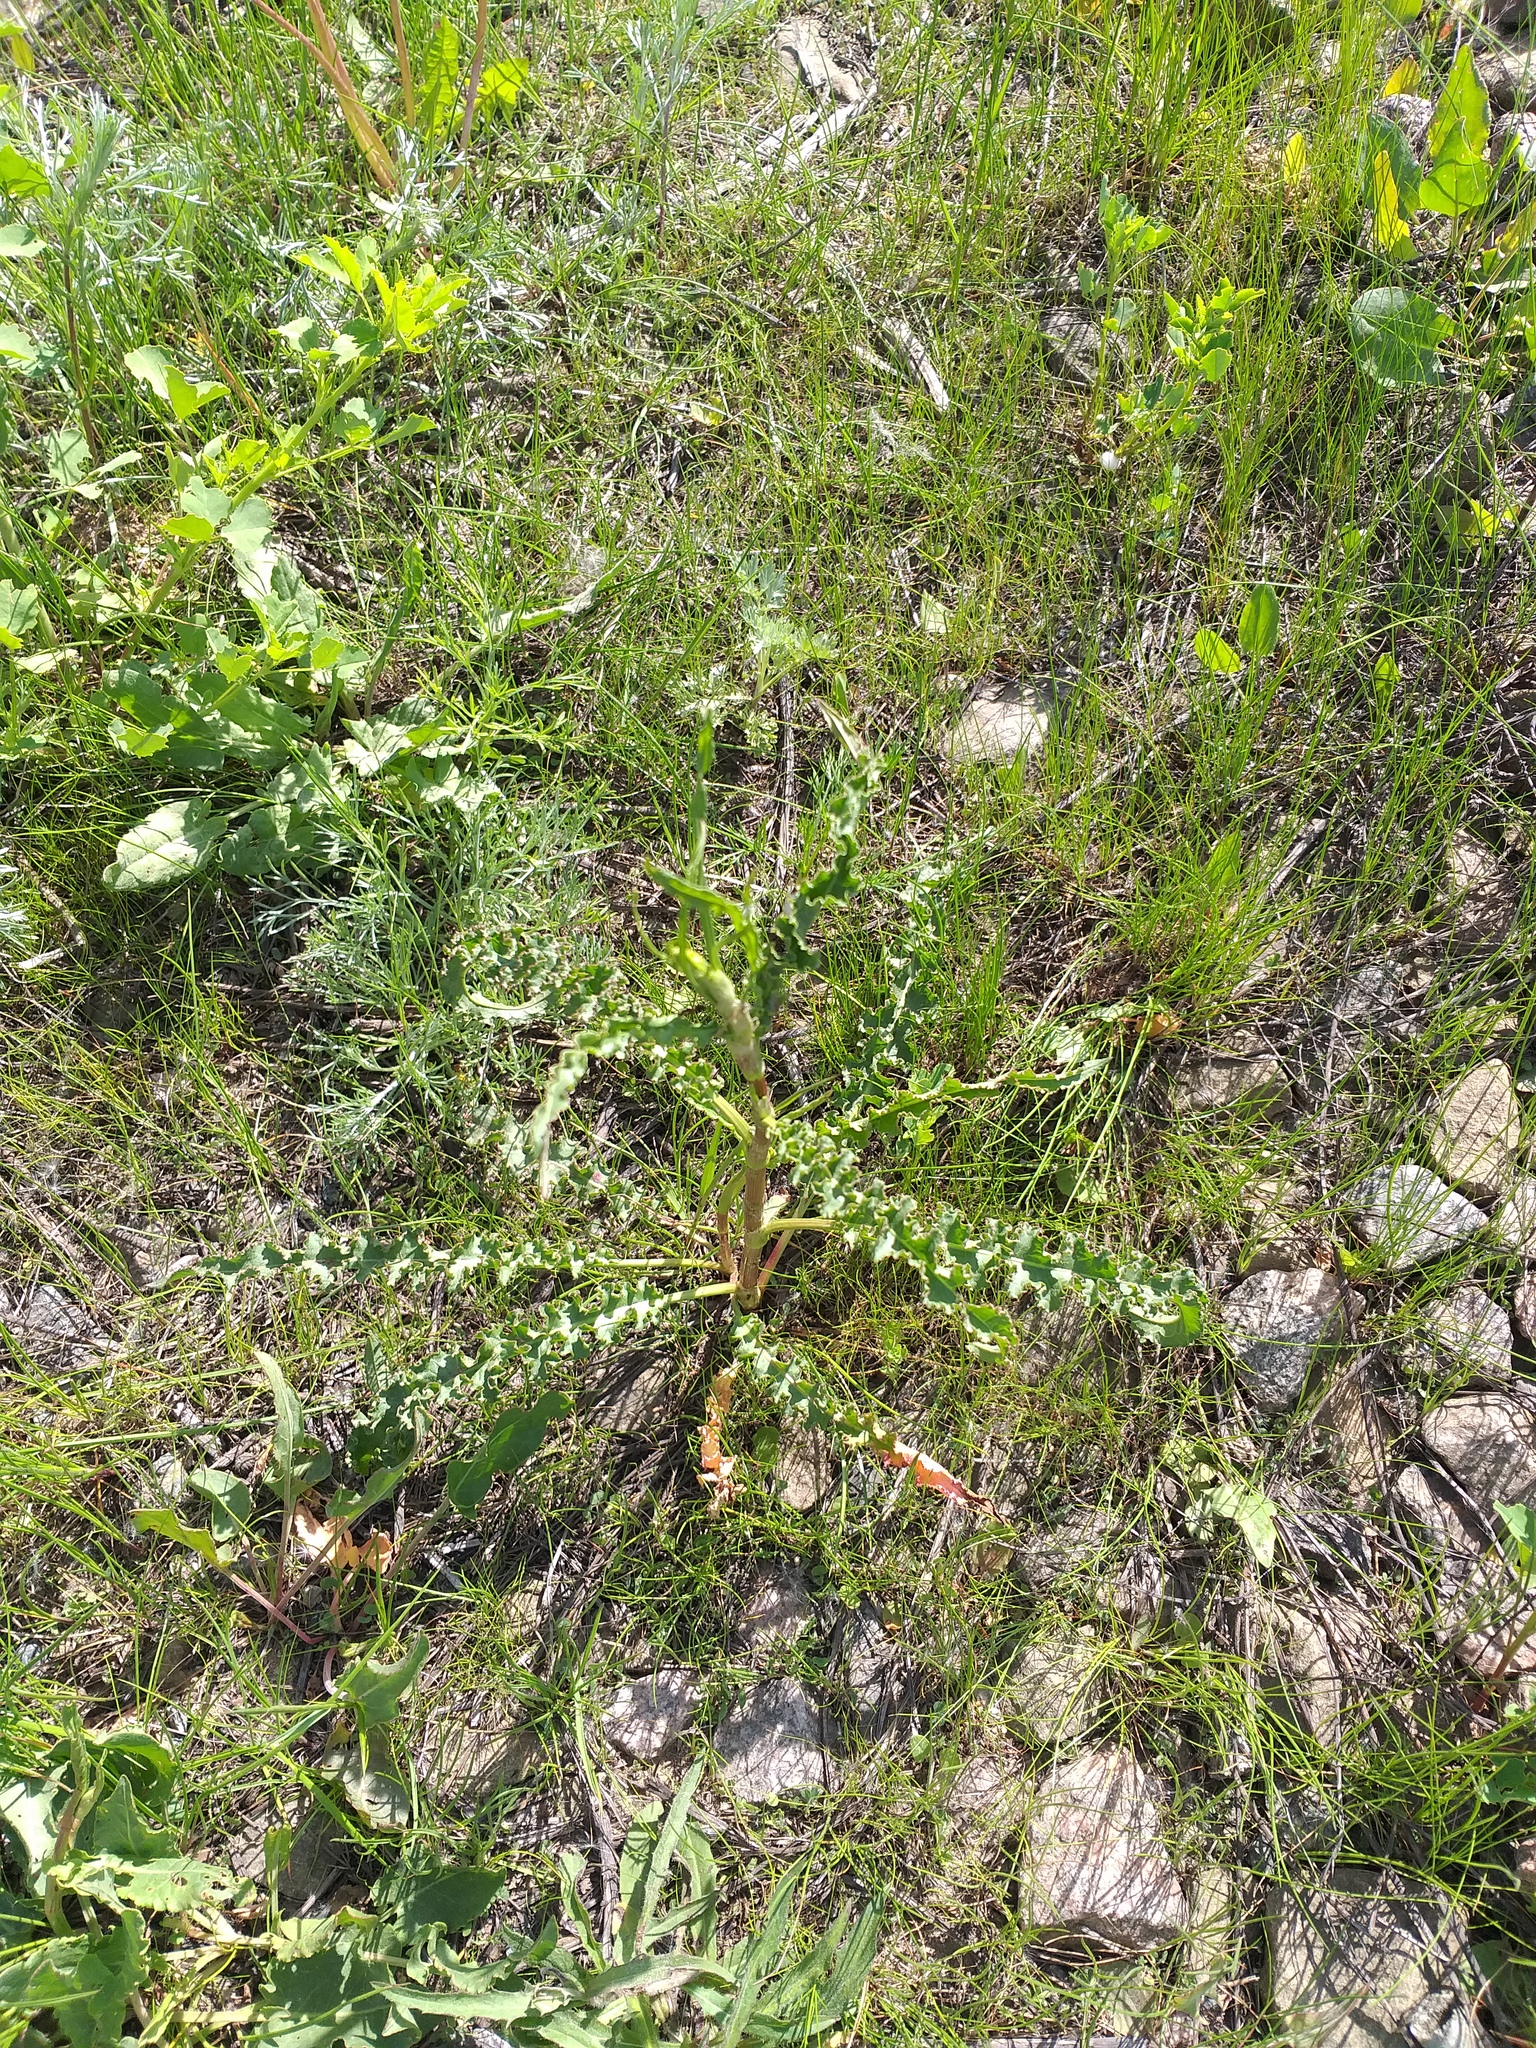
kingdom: Plantae
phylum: Tracheophyta
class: Magnoliopsida
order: Caryophyllales
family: Polygonaceae
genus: Rumex
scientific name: Rumex crispus
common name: Curled dock
